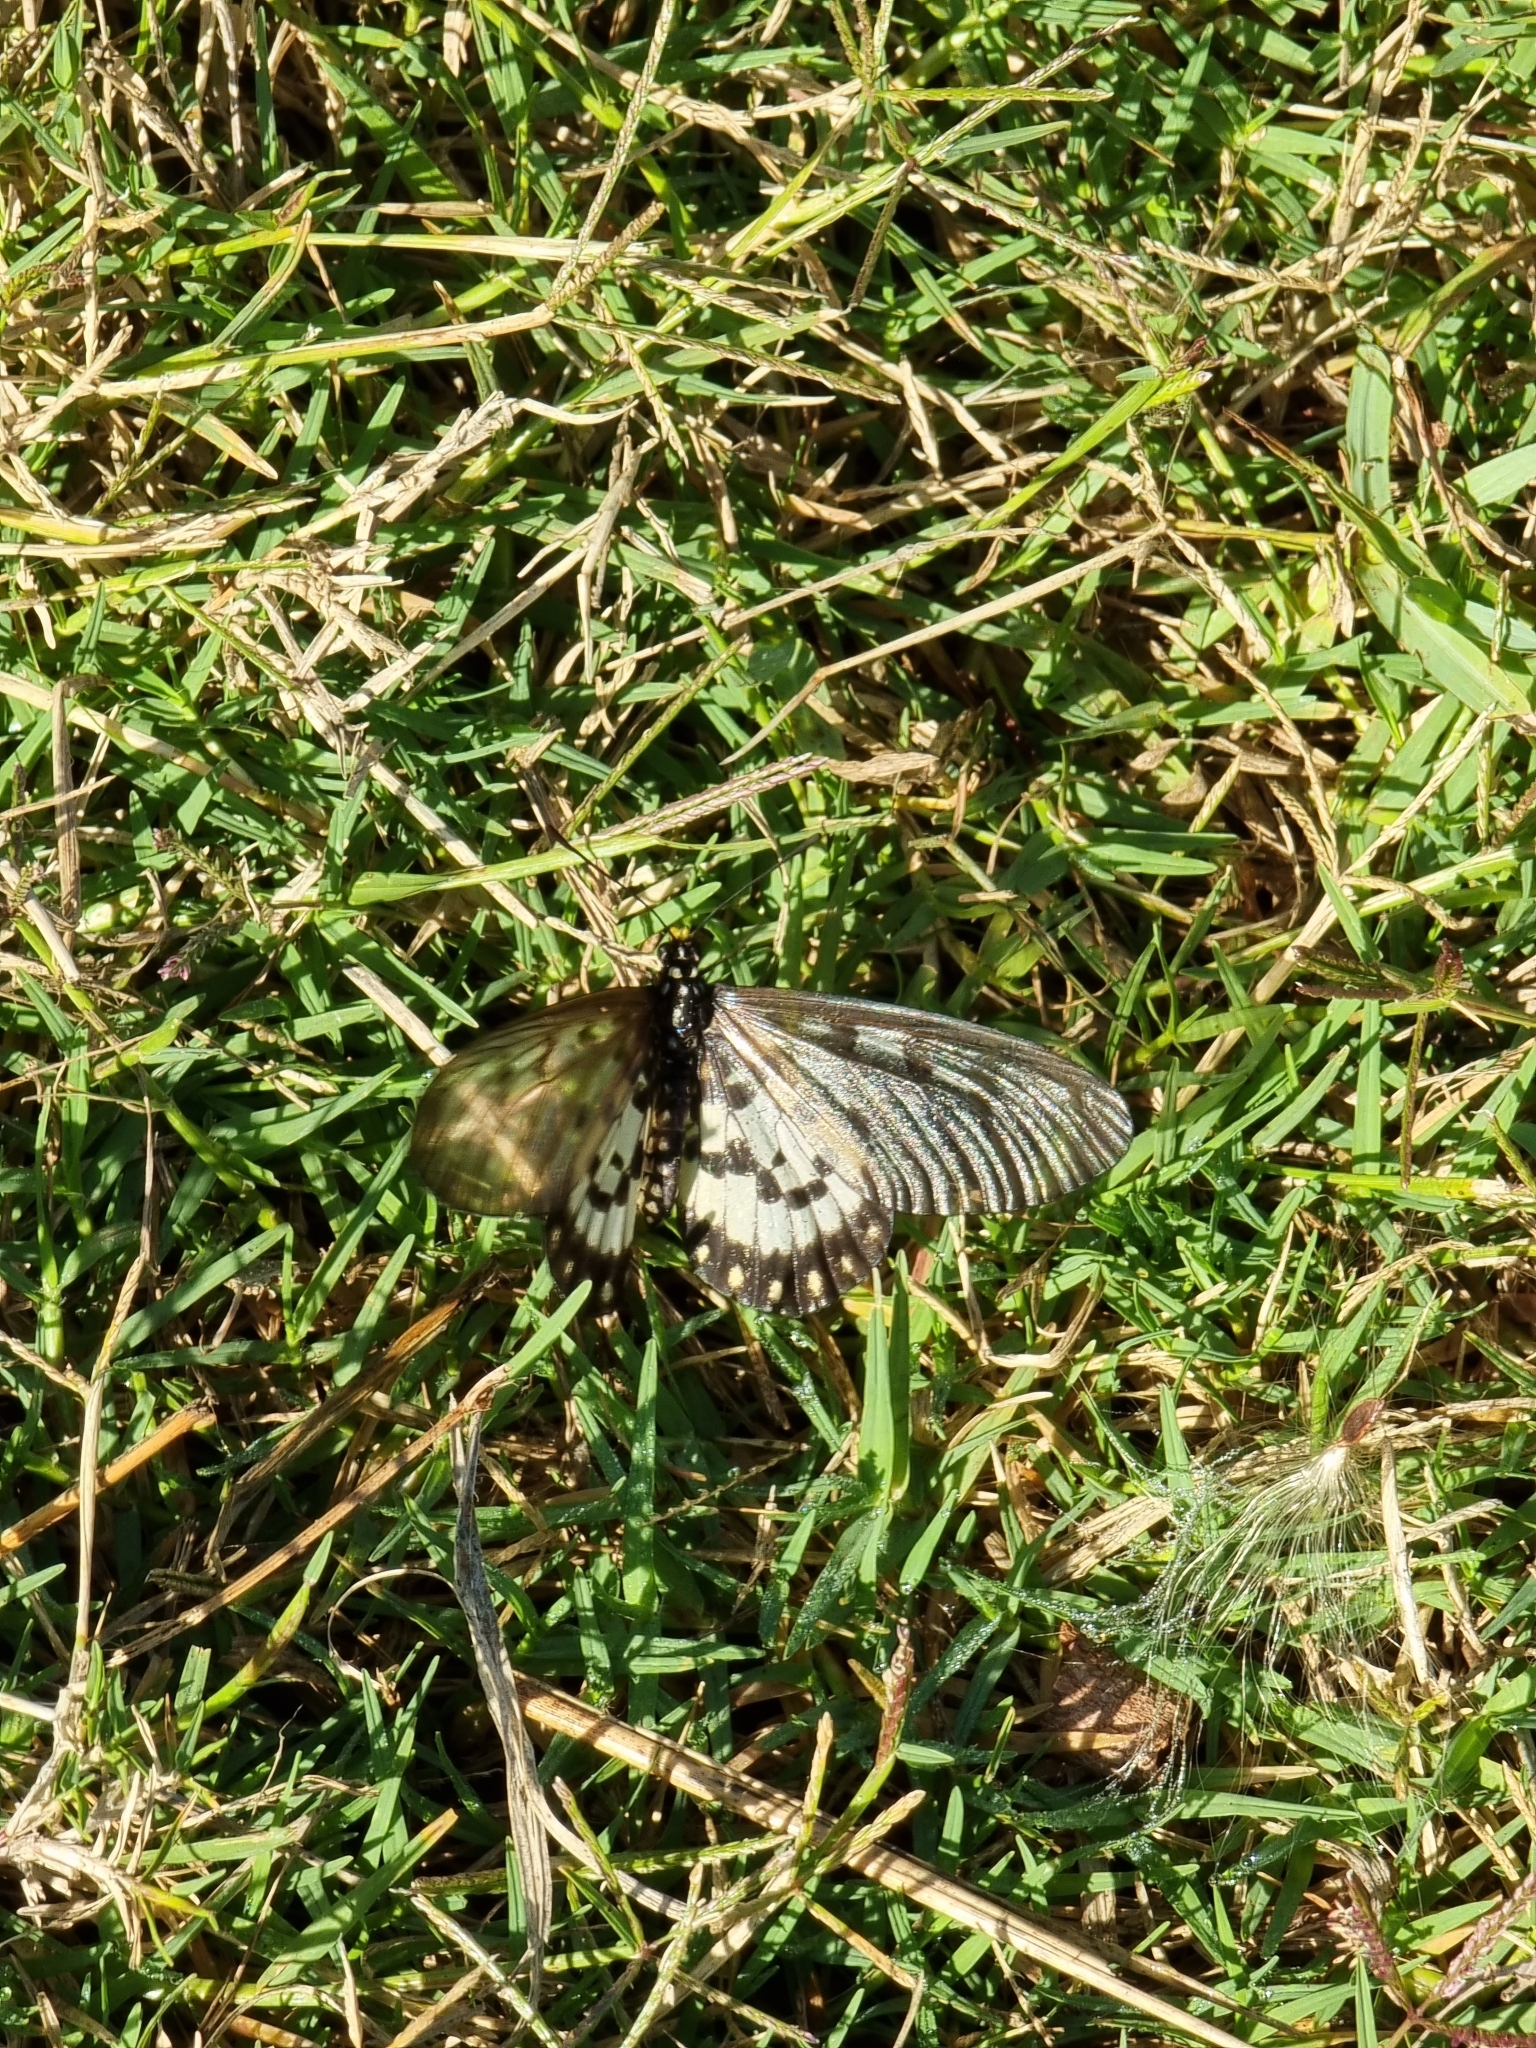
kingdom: Animalia
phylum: Arthropoda
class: Insecta
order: Lepidoptera
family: Nymphalidae
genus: Acraea
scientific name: Acraea andromacha
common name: Glasswing
